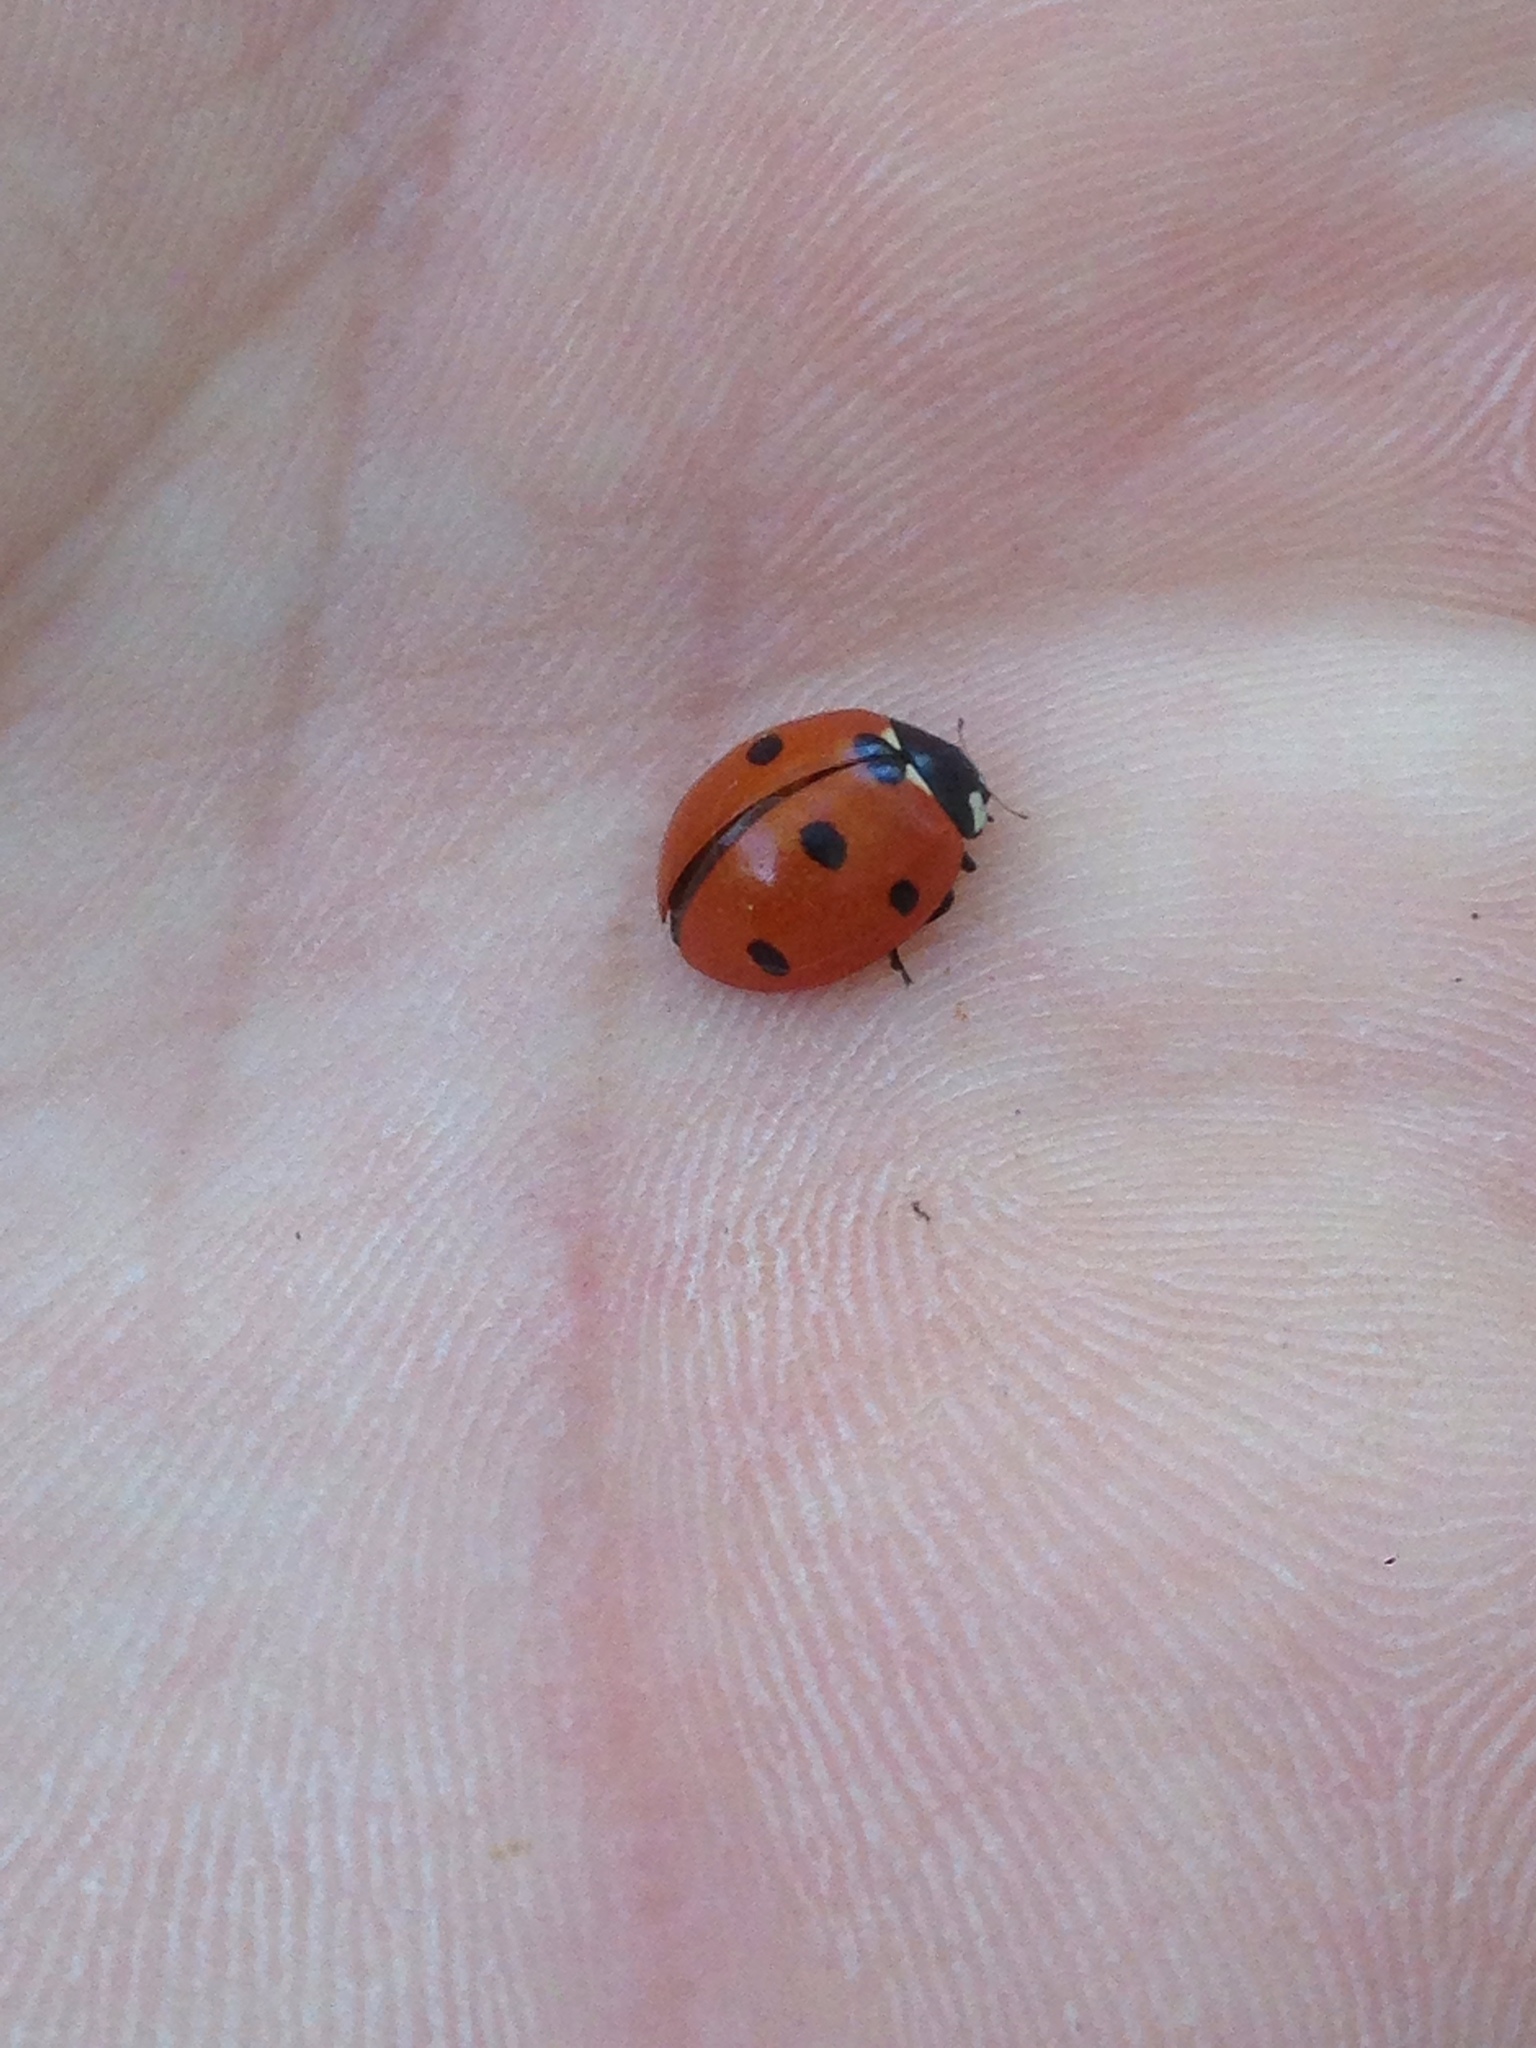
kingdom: Animalia
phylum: Arthropoda
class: Insecta
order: Coleoptera
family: Coccinellidae
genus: Coccinella
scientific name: Coccinella septempunctata
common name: Sevenspotted lady beetle
